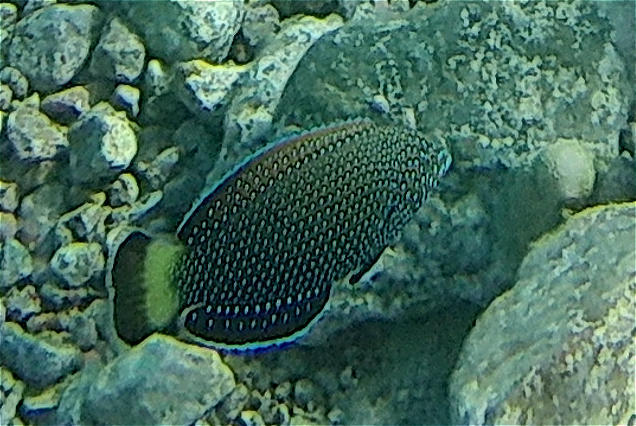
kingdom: Animalia
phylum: Chordata
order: Perciformes
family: Labridae
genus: Anampses
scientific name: Anampses caeruleopunctatus
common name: Bluespotted wrasse
